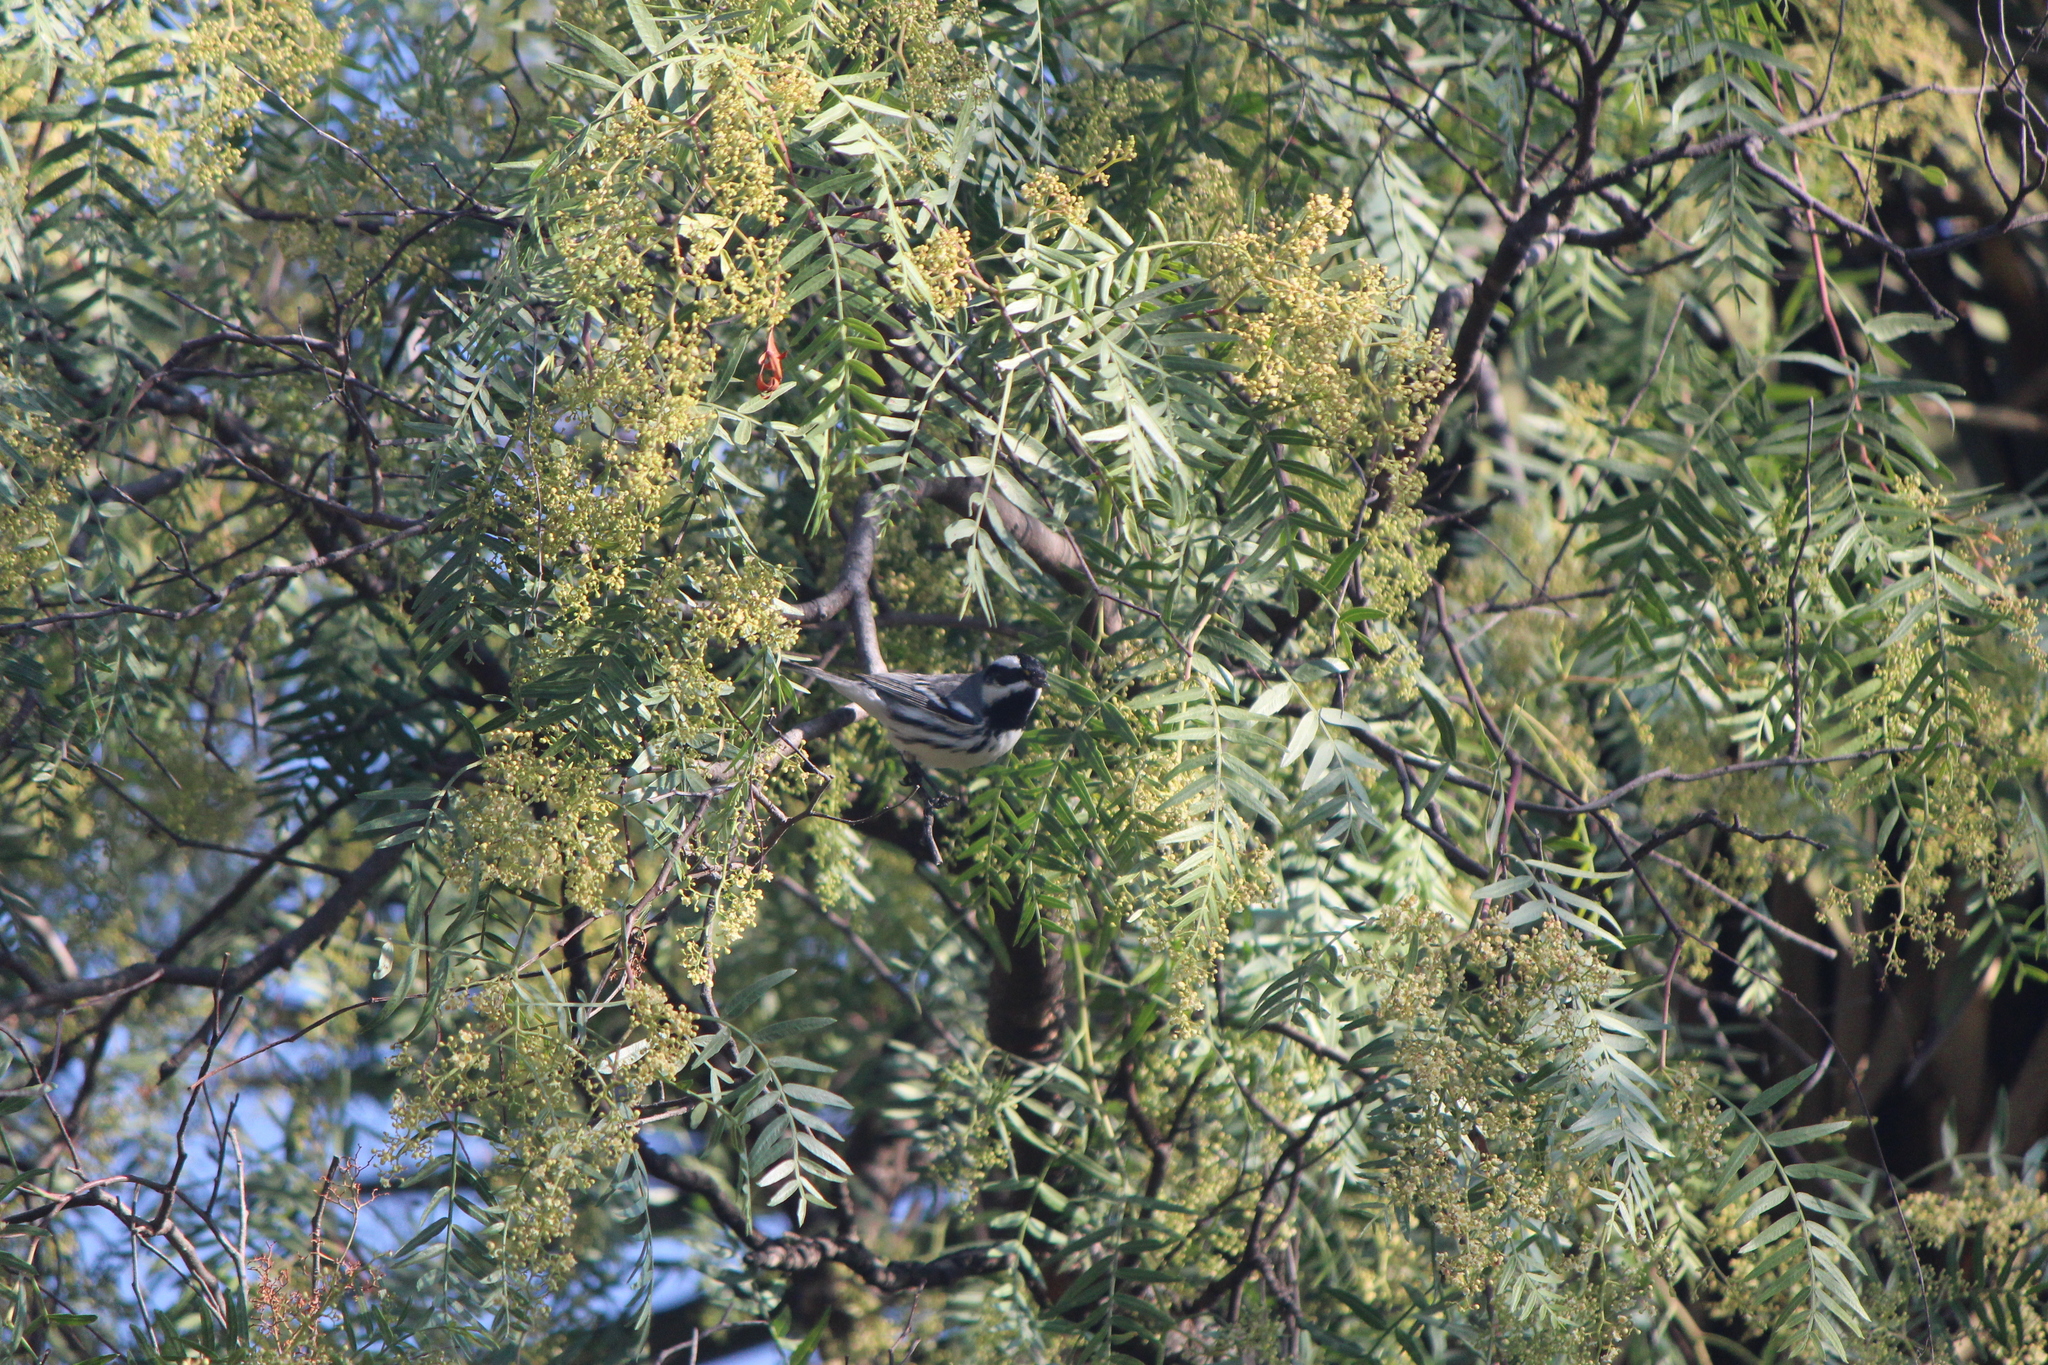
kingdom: Animalia
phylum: Chordata
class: Aves
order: Passeriformes
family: Parulidae
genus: Setophaga
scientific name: Setophaga nigrescens
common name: Black-throated gray warbler
